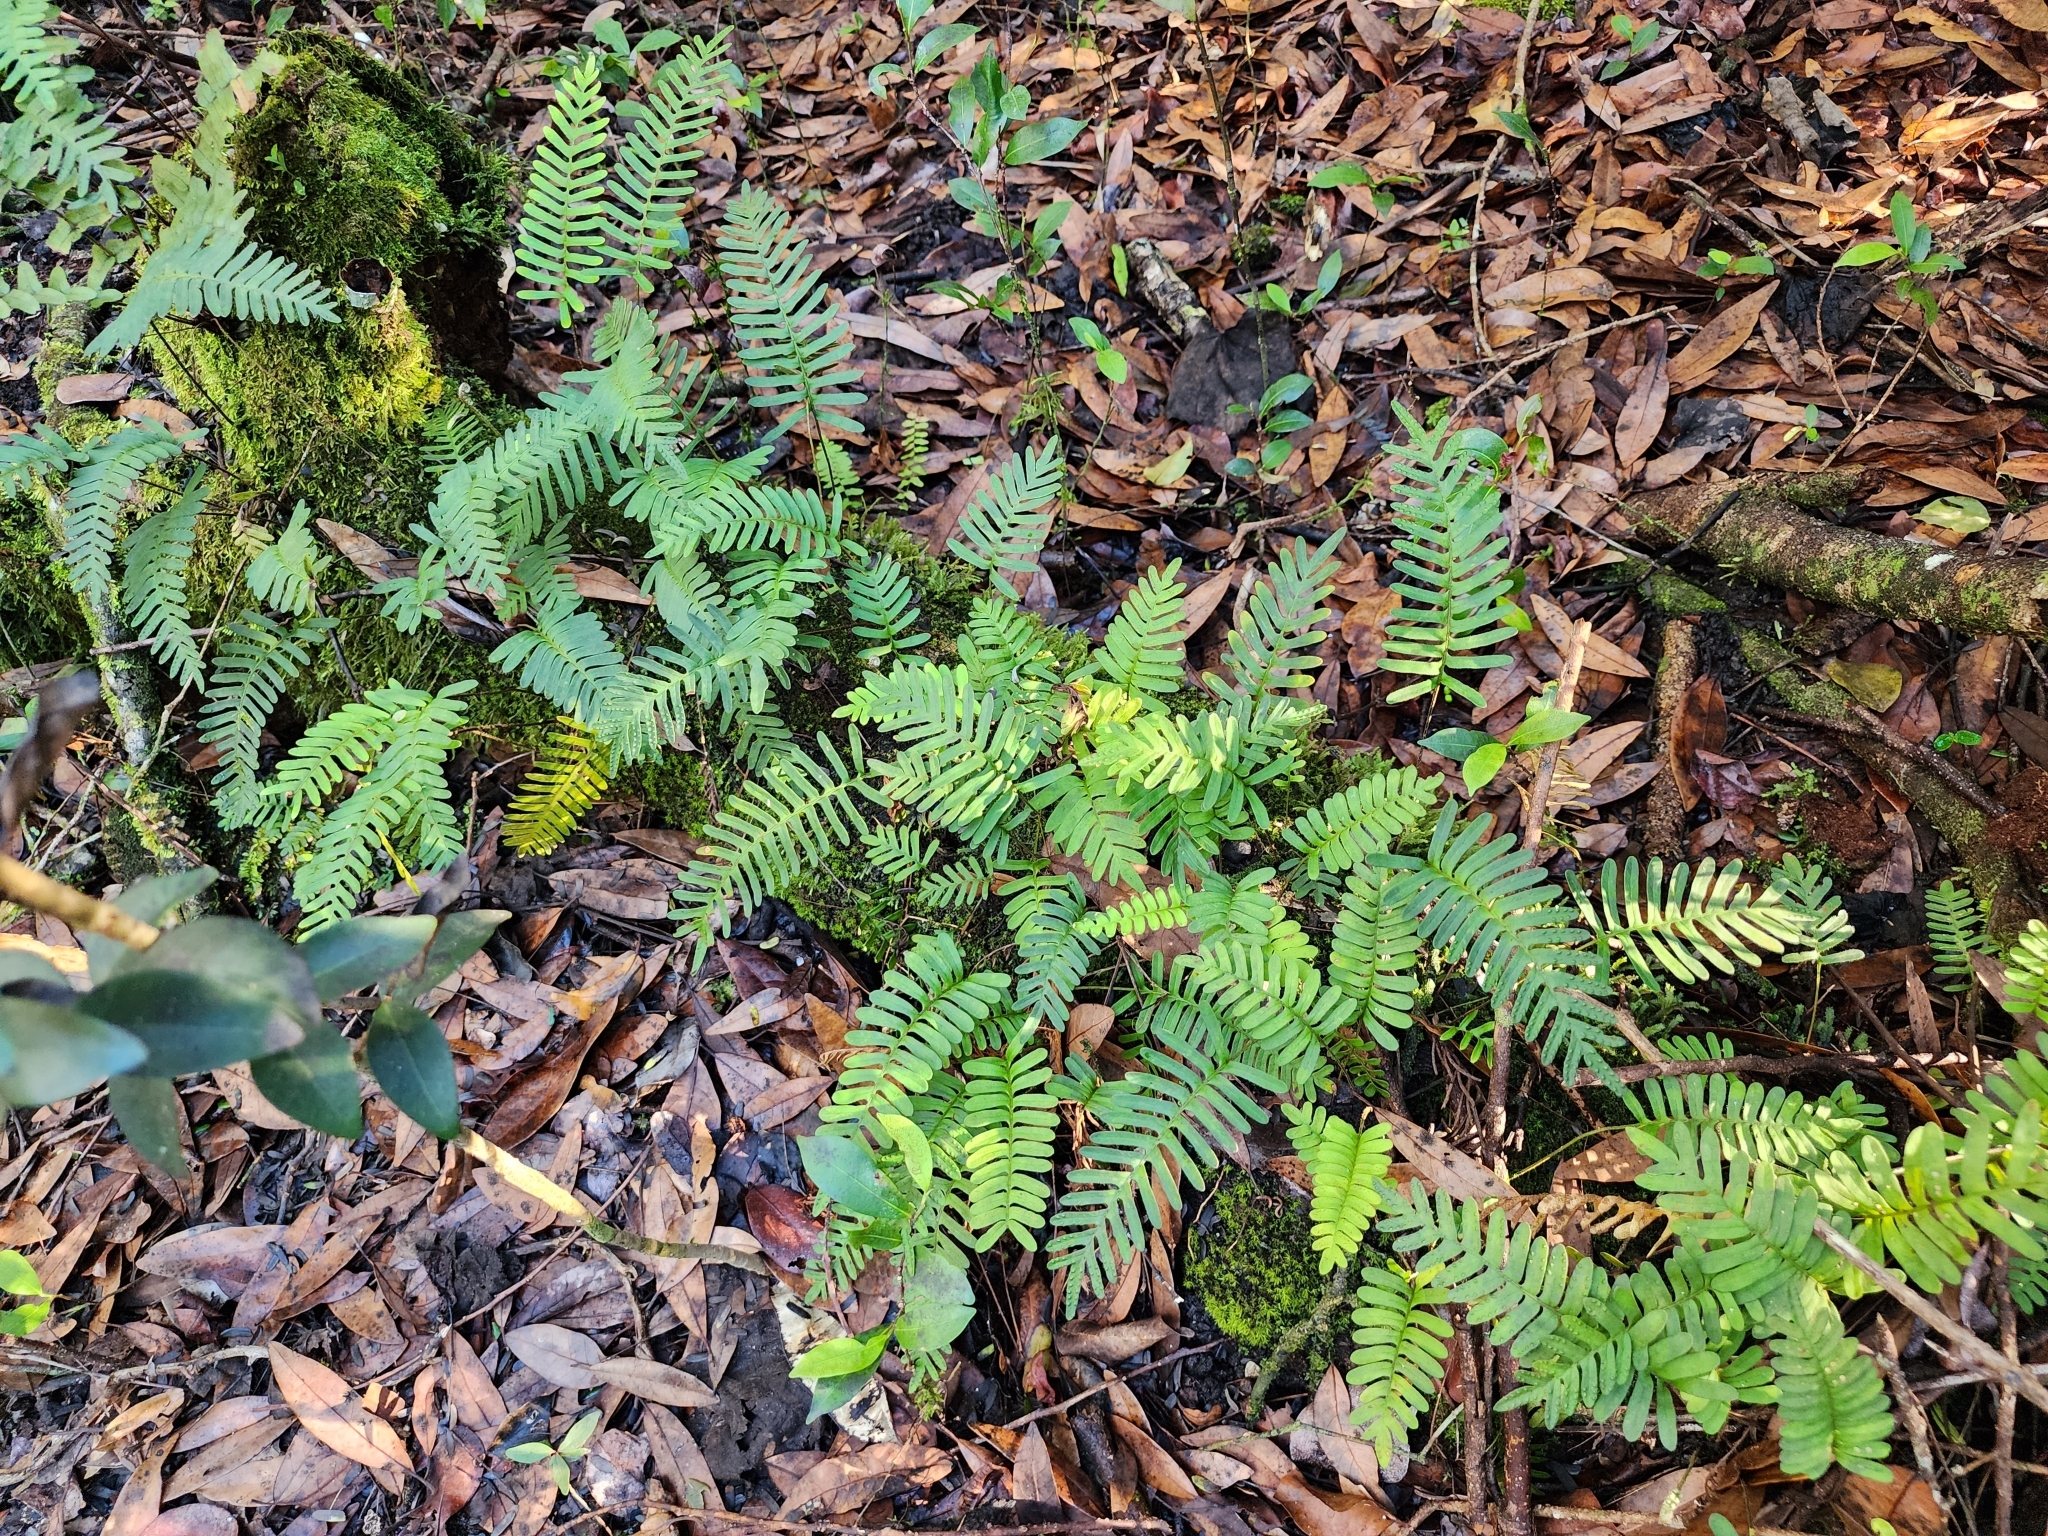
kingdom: Plantae
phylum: Tracheophyta
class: Polypodiopsida
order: Polypodiales
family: Polypodiaceae
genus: Pleopeltis
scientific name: Pleopeltis michauxiana
